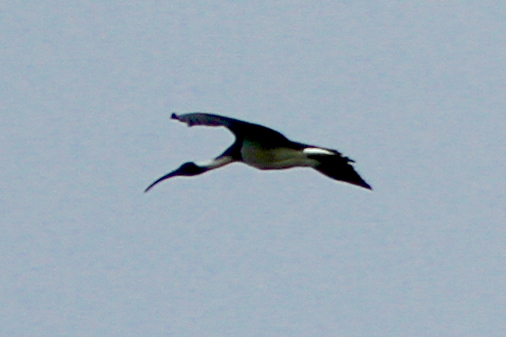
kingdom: Animalia
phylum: Chordata
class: Aves
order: Pelecaniformes
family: Threskiornithidae
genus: Threskiornis
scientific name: Threskiornis spinicollis
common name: Straw-necked ibis
